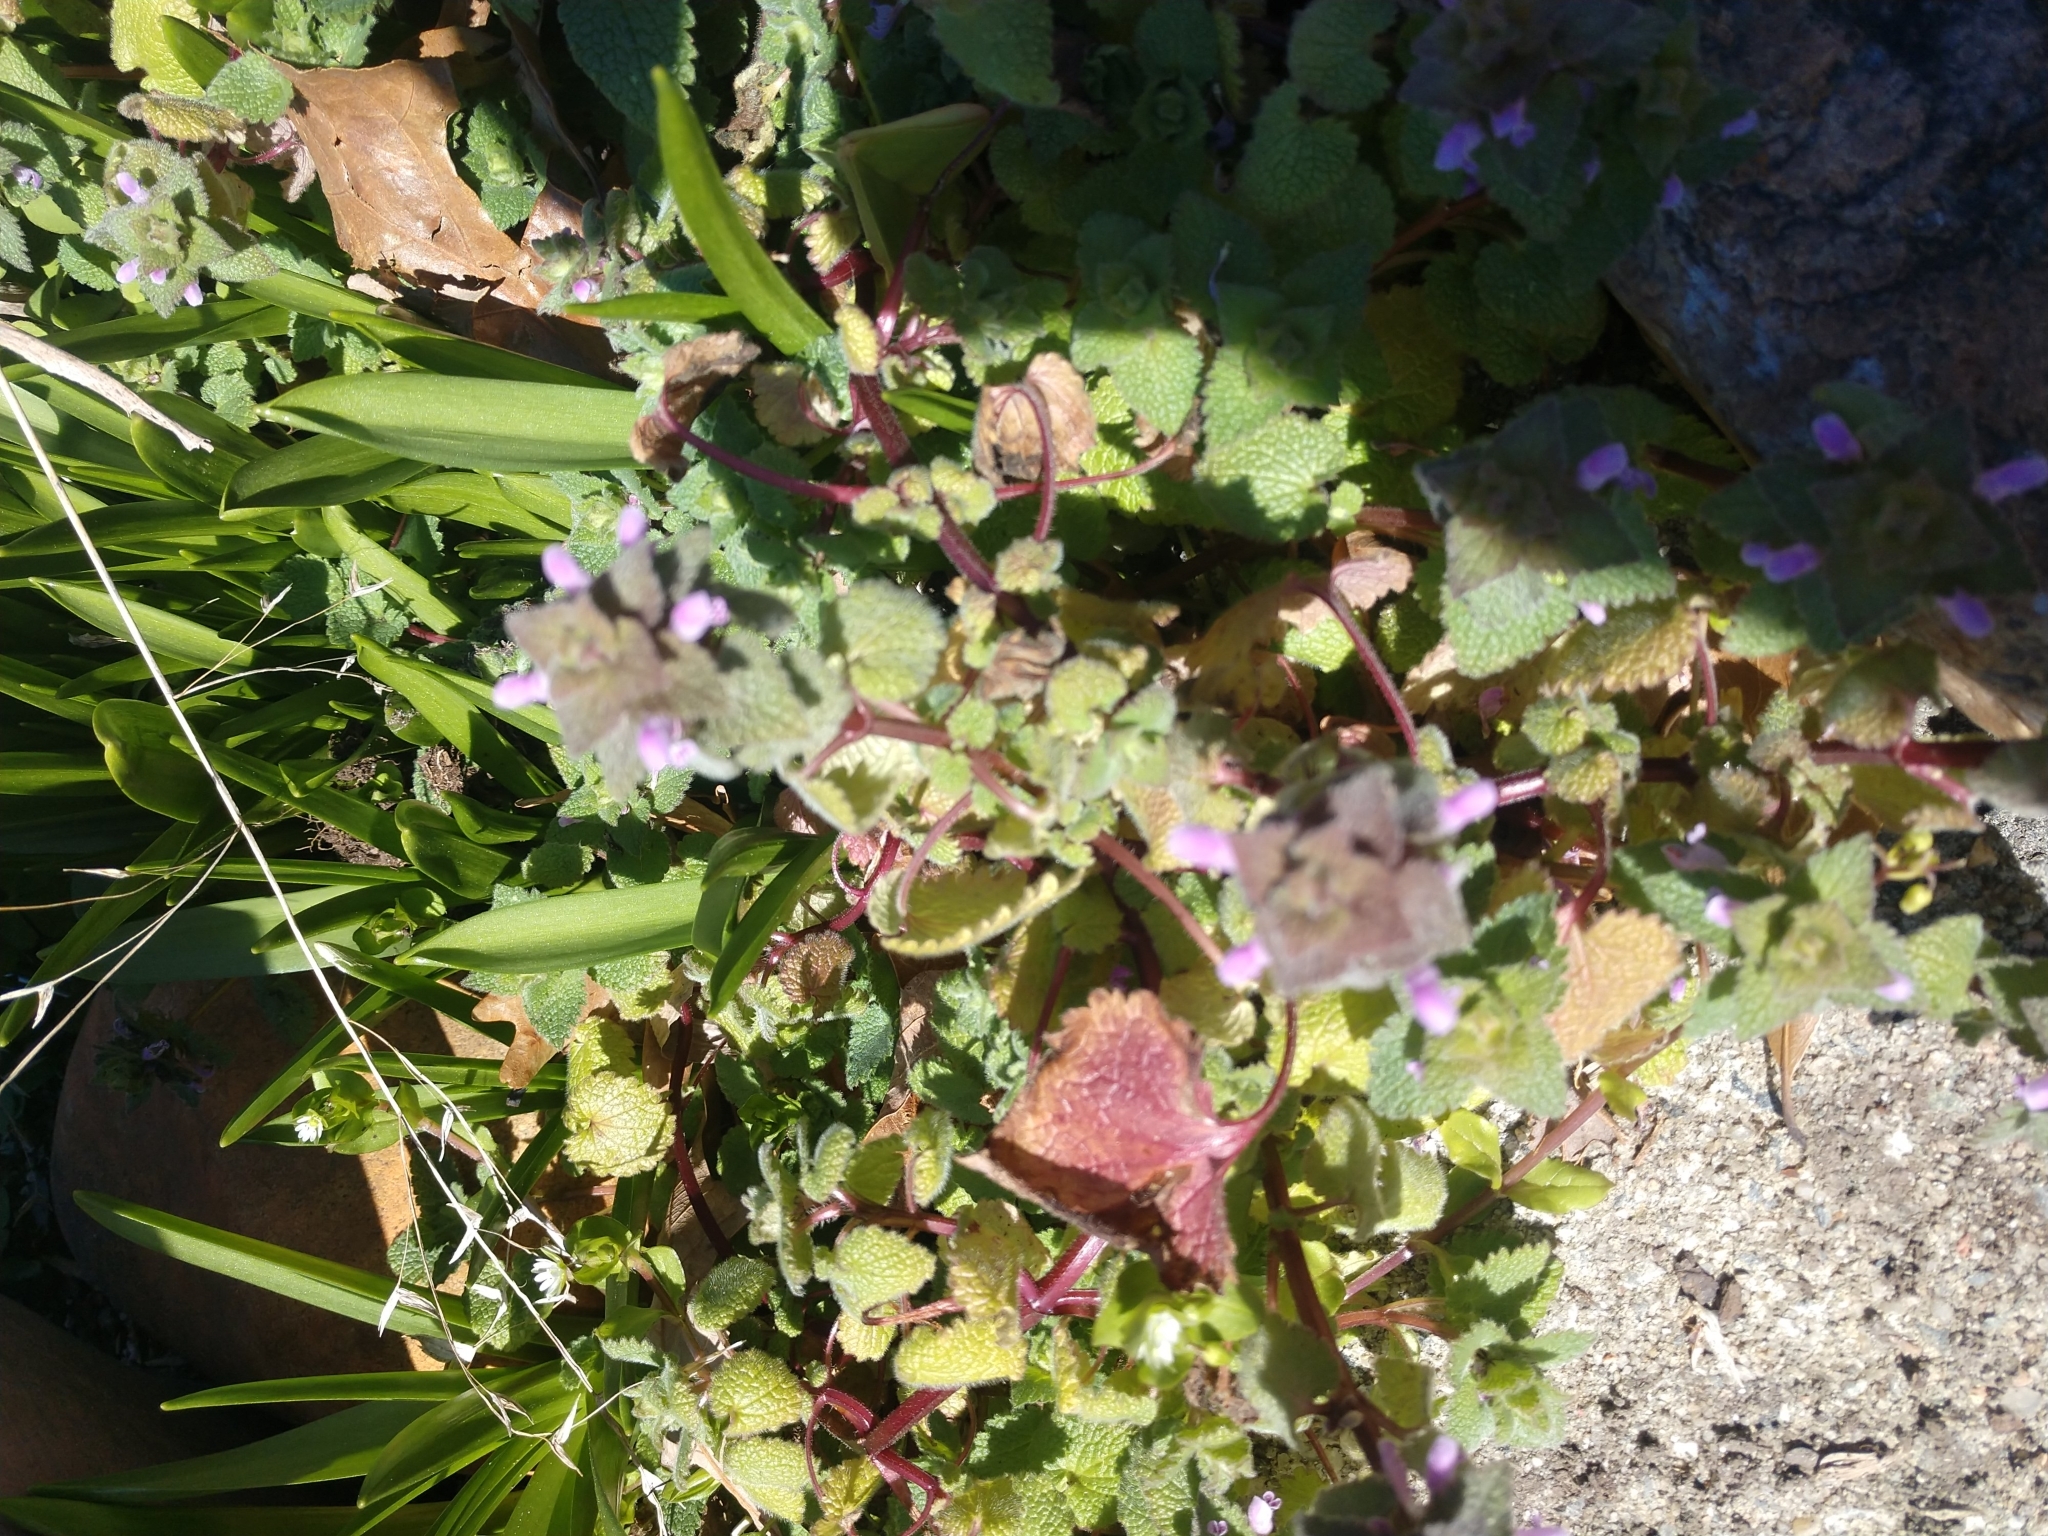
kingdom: Plantae
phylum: Tracheophyta
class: Magnoliopsida
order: Lamiales
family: Lamiaceae
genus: Lamium
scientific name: Lamium purpureum
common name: Red dead-nettle
